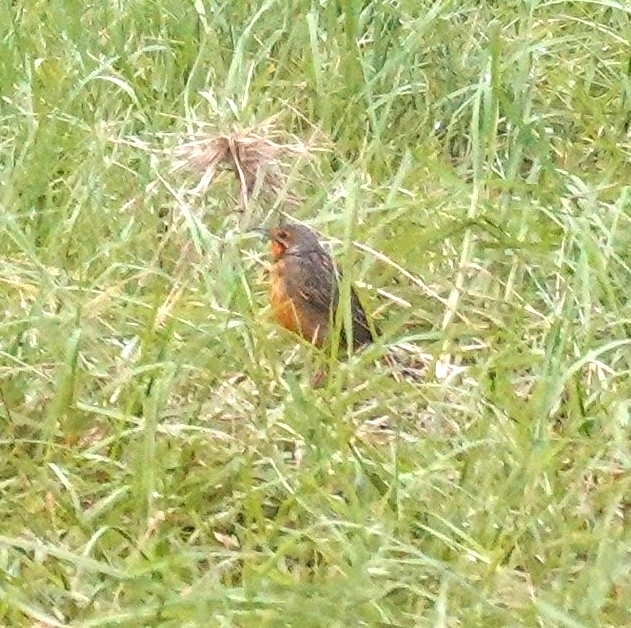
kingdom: Animalia
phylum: Chordata
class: Aves
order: Passeriformes
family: Motacillidae
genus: Macronyx
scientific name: Macronyx capensis
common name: Cape longclaw
